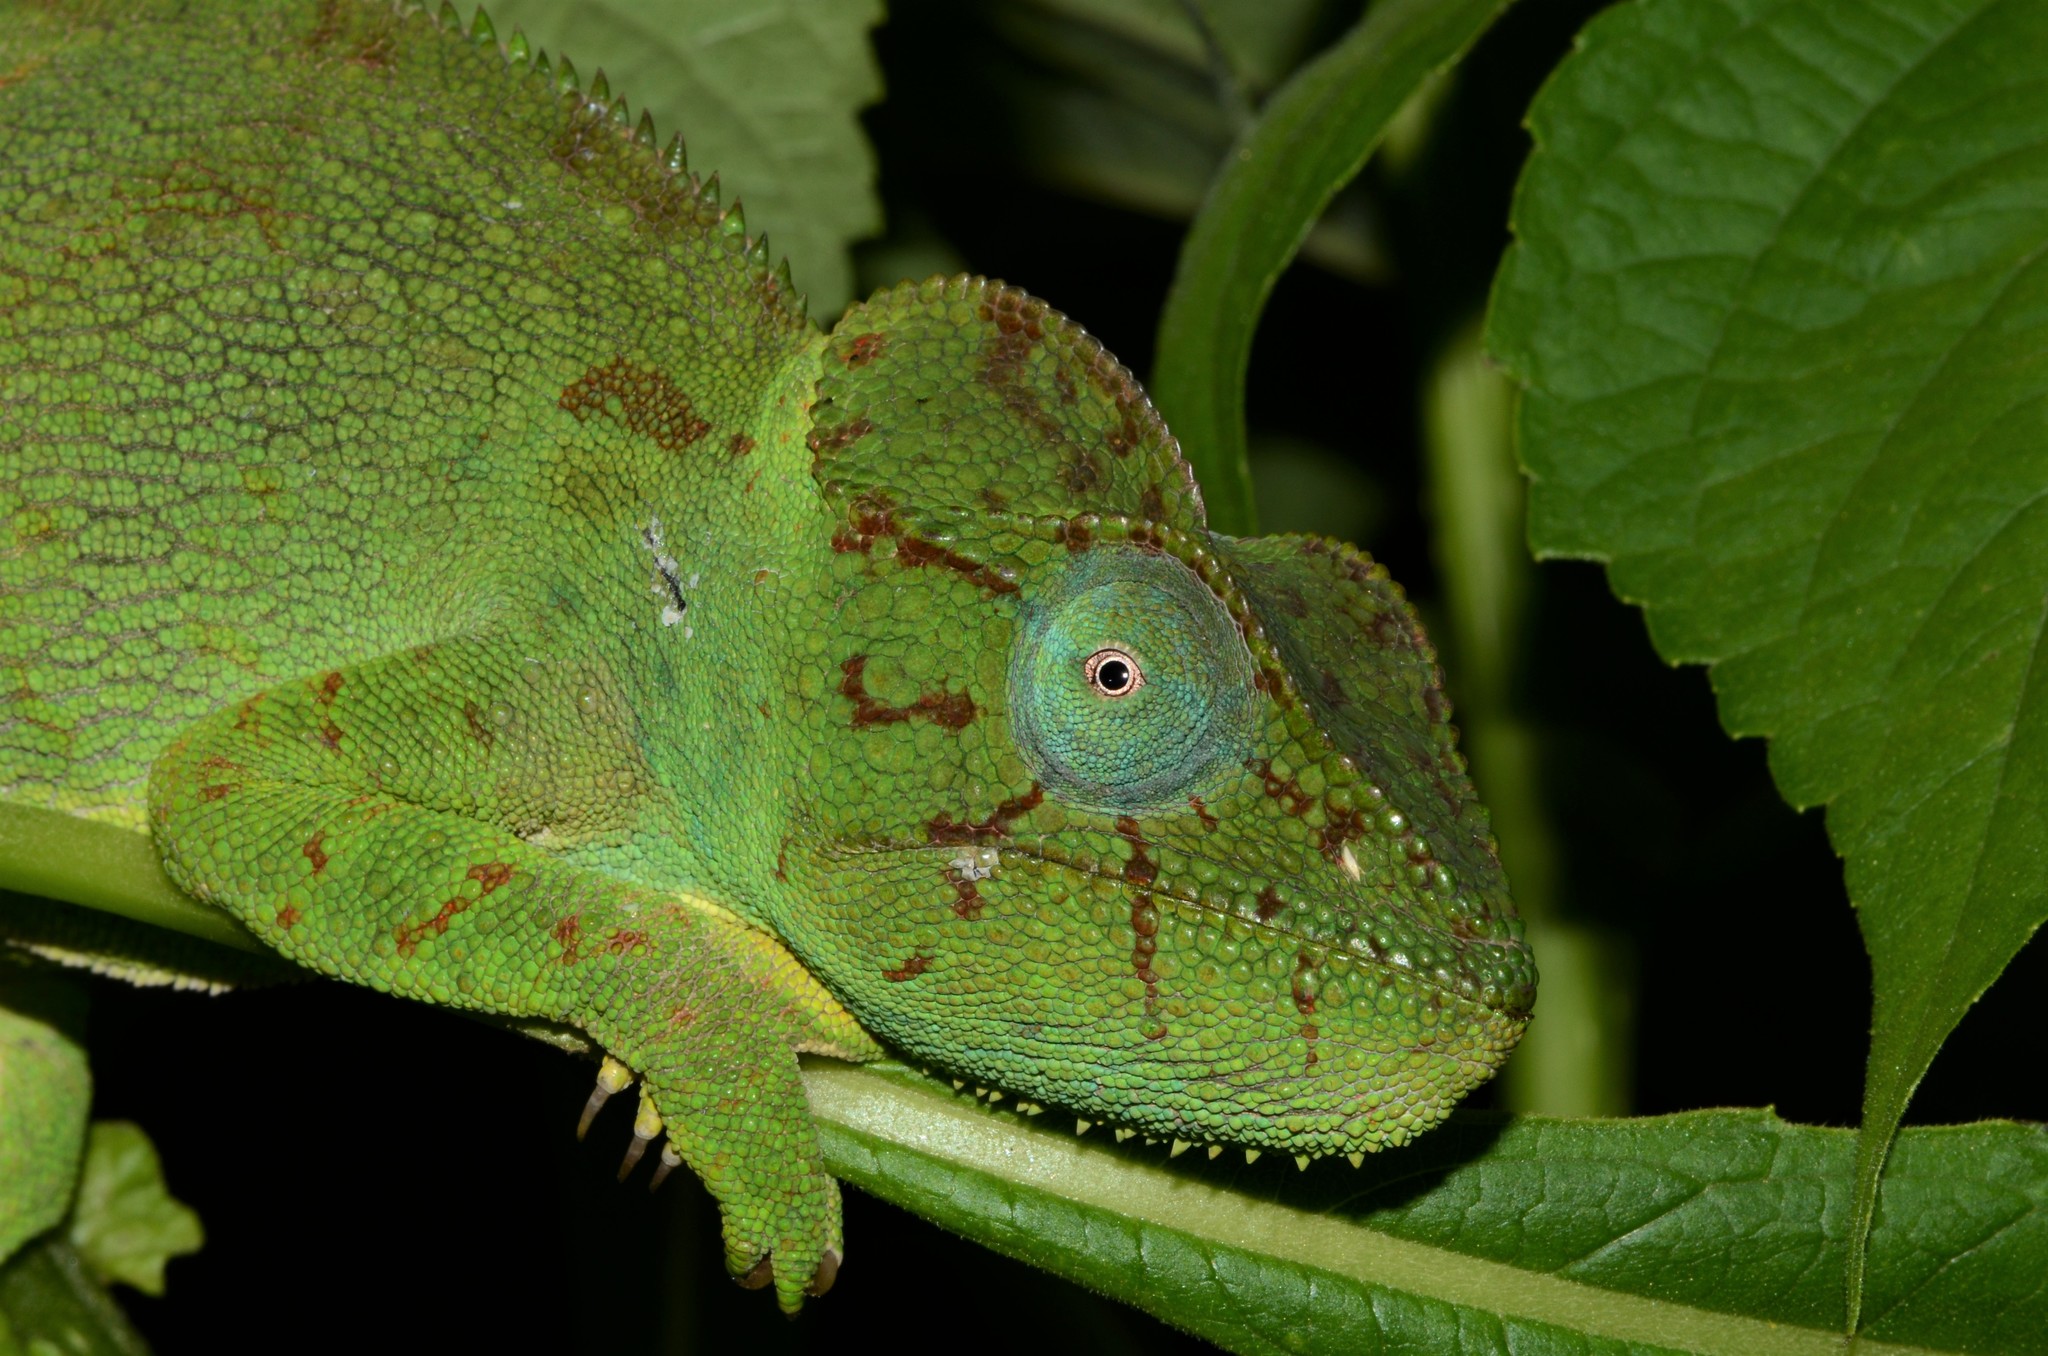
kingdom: Animalia
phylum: Chordata
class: Squamata
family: Chamaeleonidae
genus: Furcifer
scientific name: Furcifer oustaleti
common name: Oustalet's chameleon
